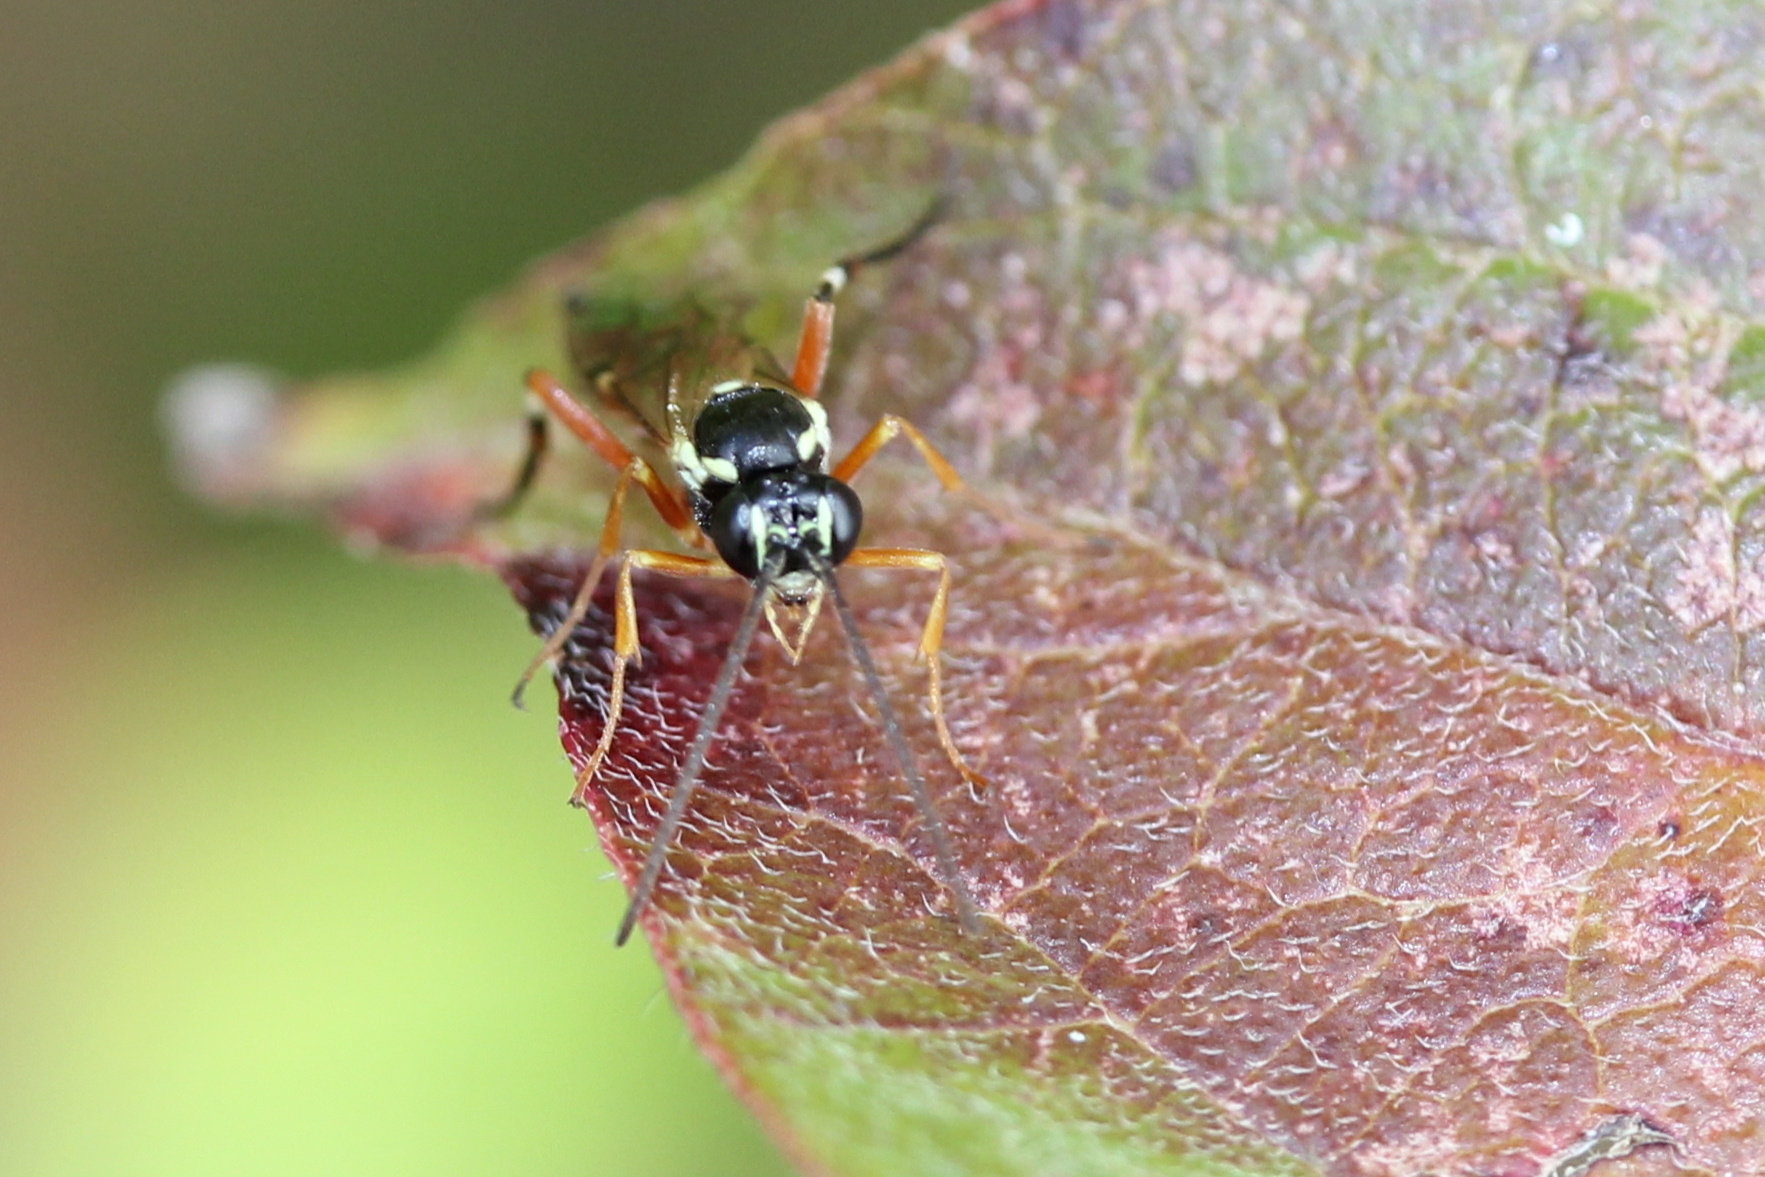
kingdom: Animalia
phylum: Arthropoda
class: Insecta
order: Hymenoptera
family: Ichneumonidae
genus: Diplazon
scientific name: Diplazon laetatorius
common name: Parasitoid wasp
